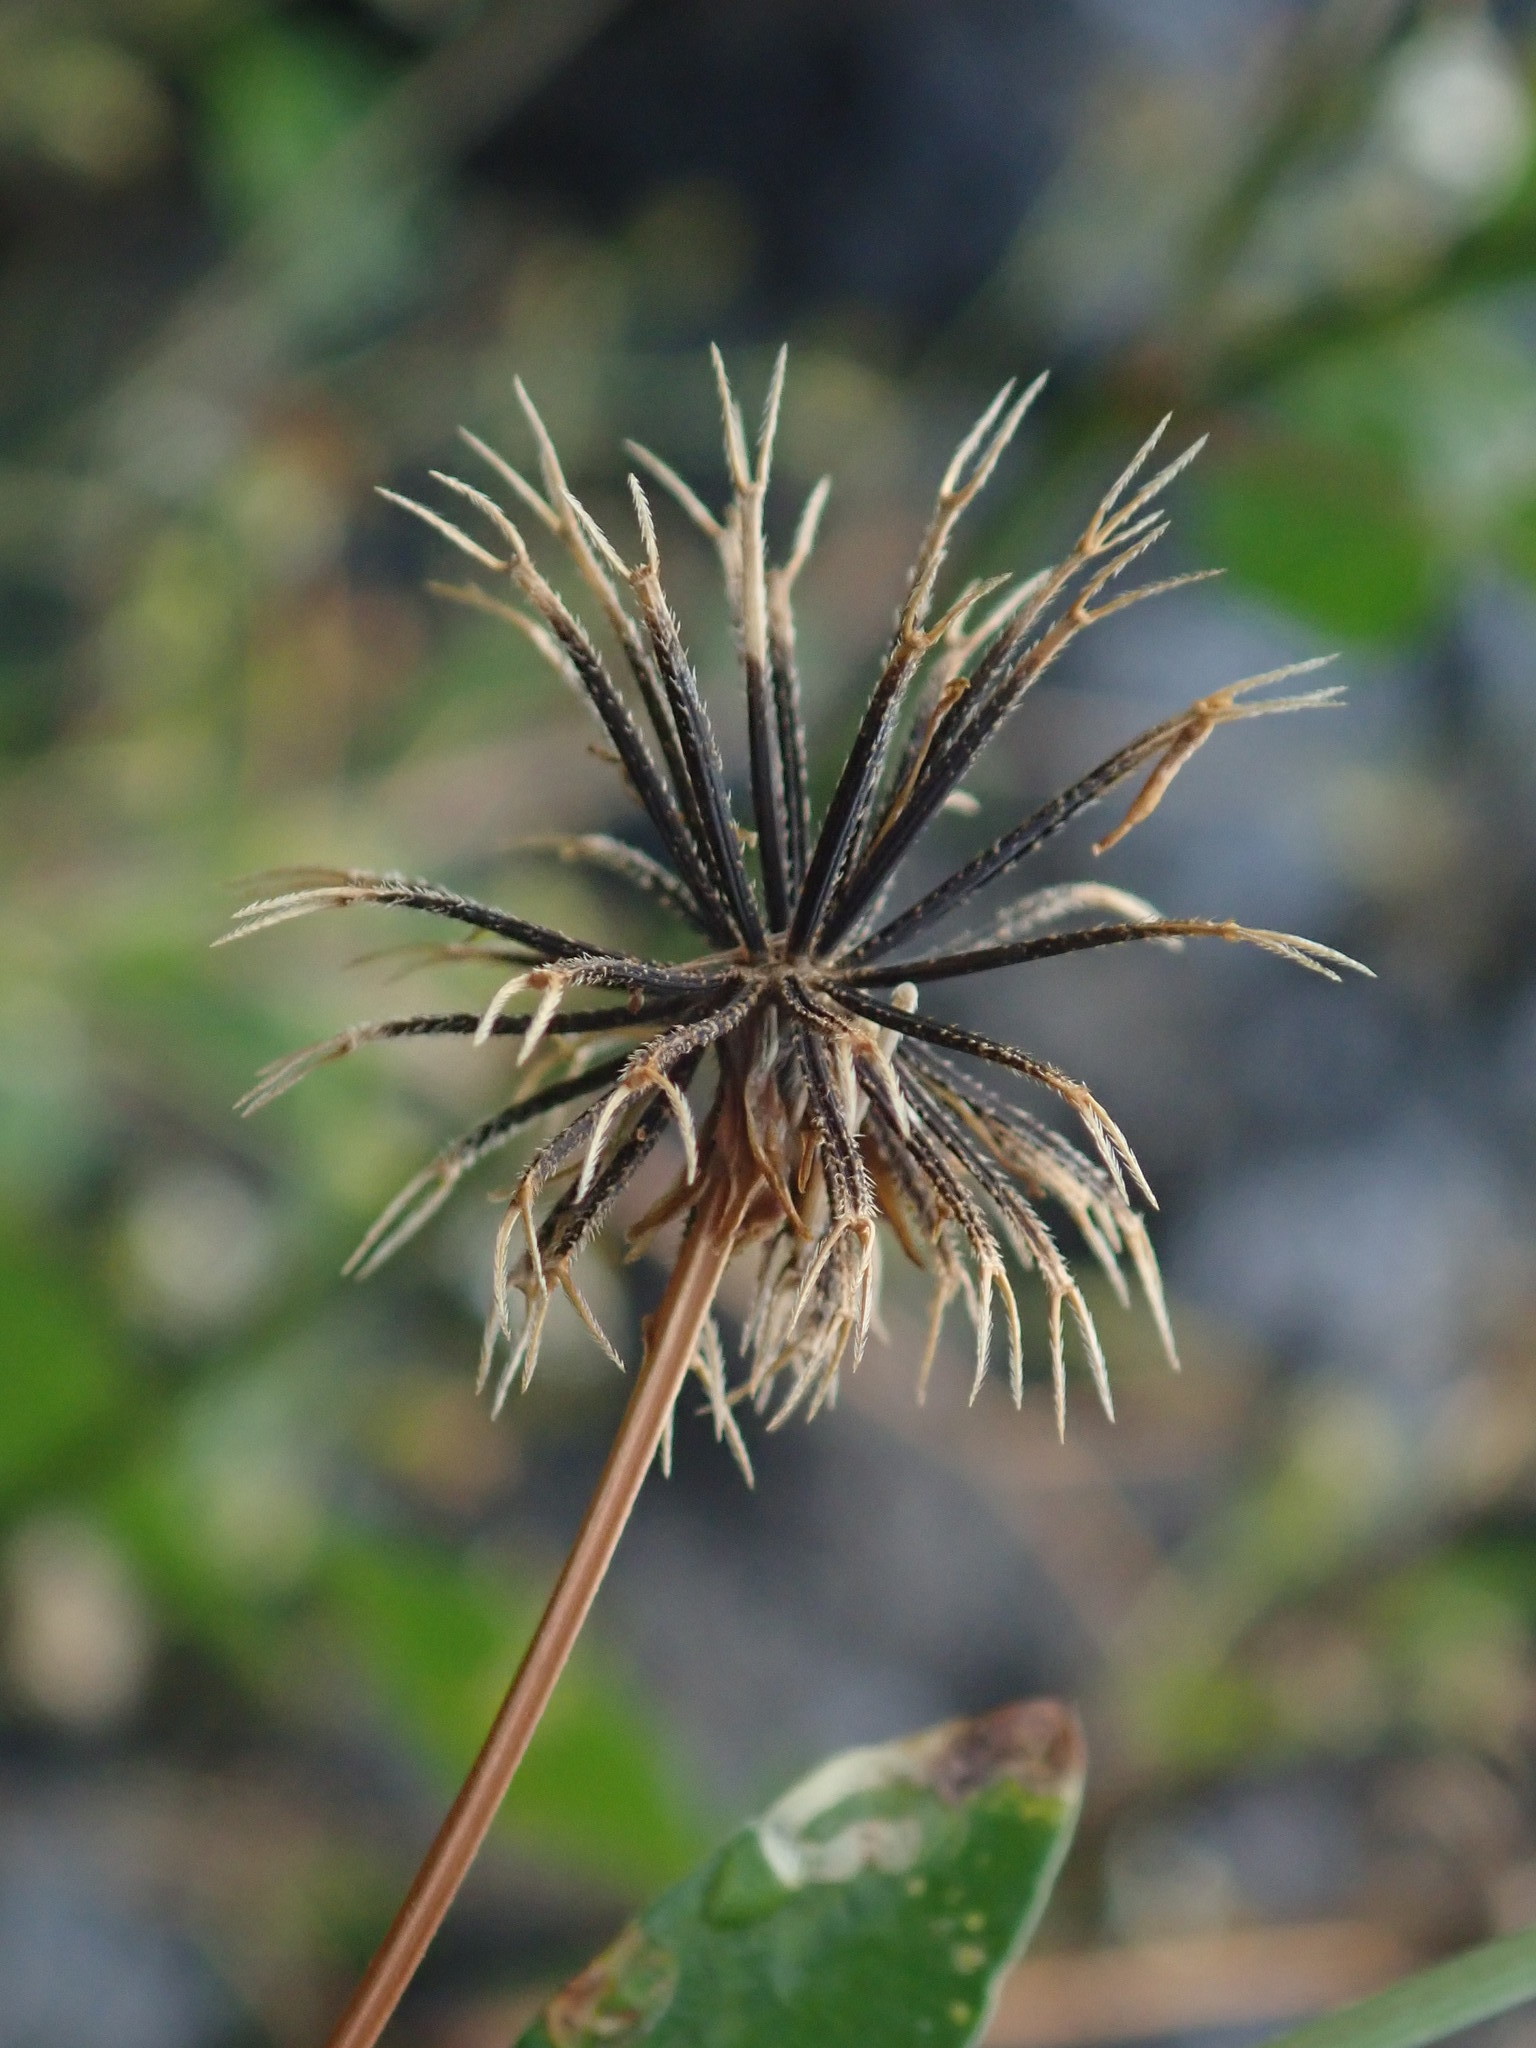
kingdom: Plantae
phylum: Tracheophyta
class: Magnoliopsida
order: Asterales
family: Asteraceae
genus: Bidens
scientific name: Bidens alba
